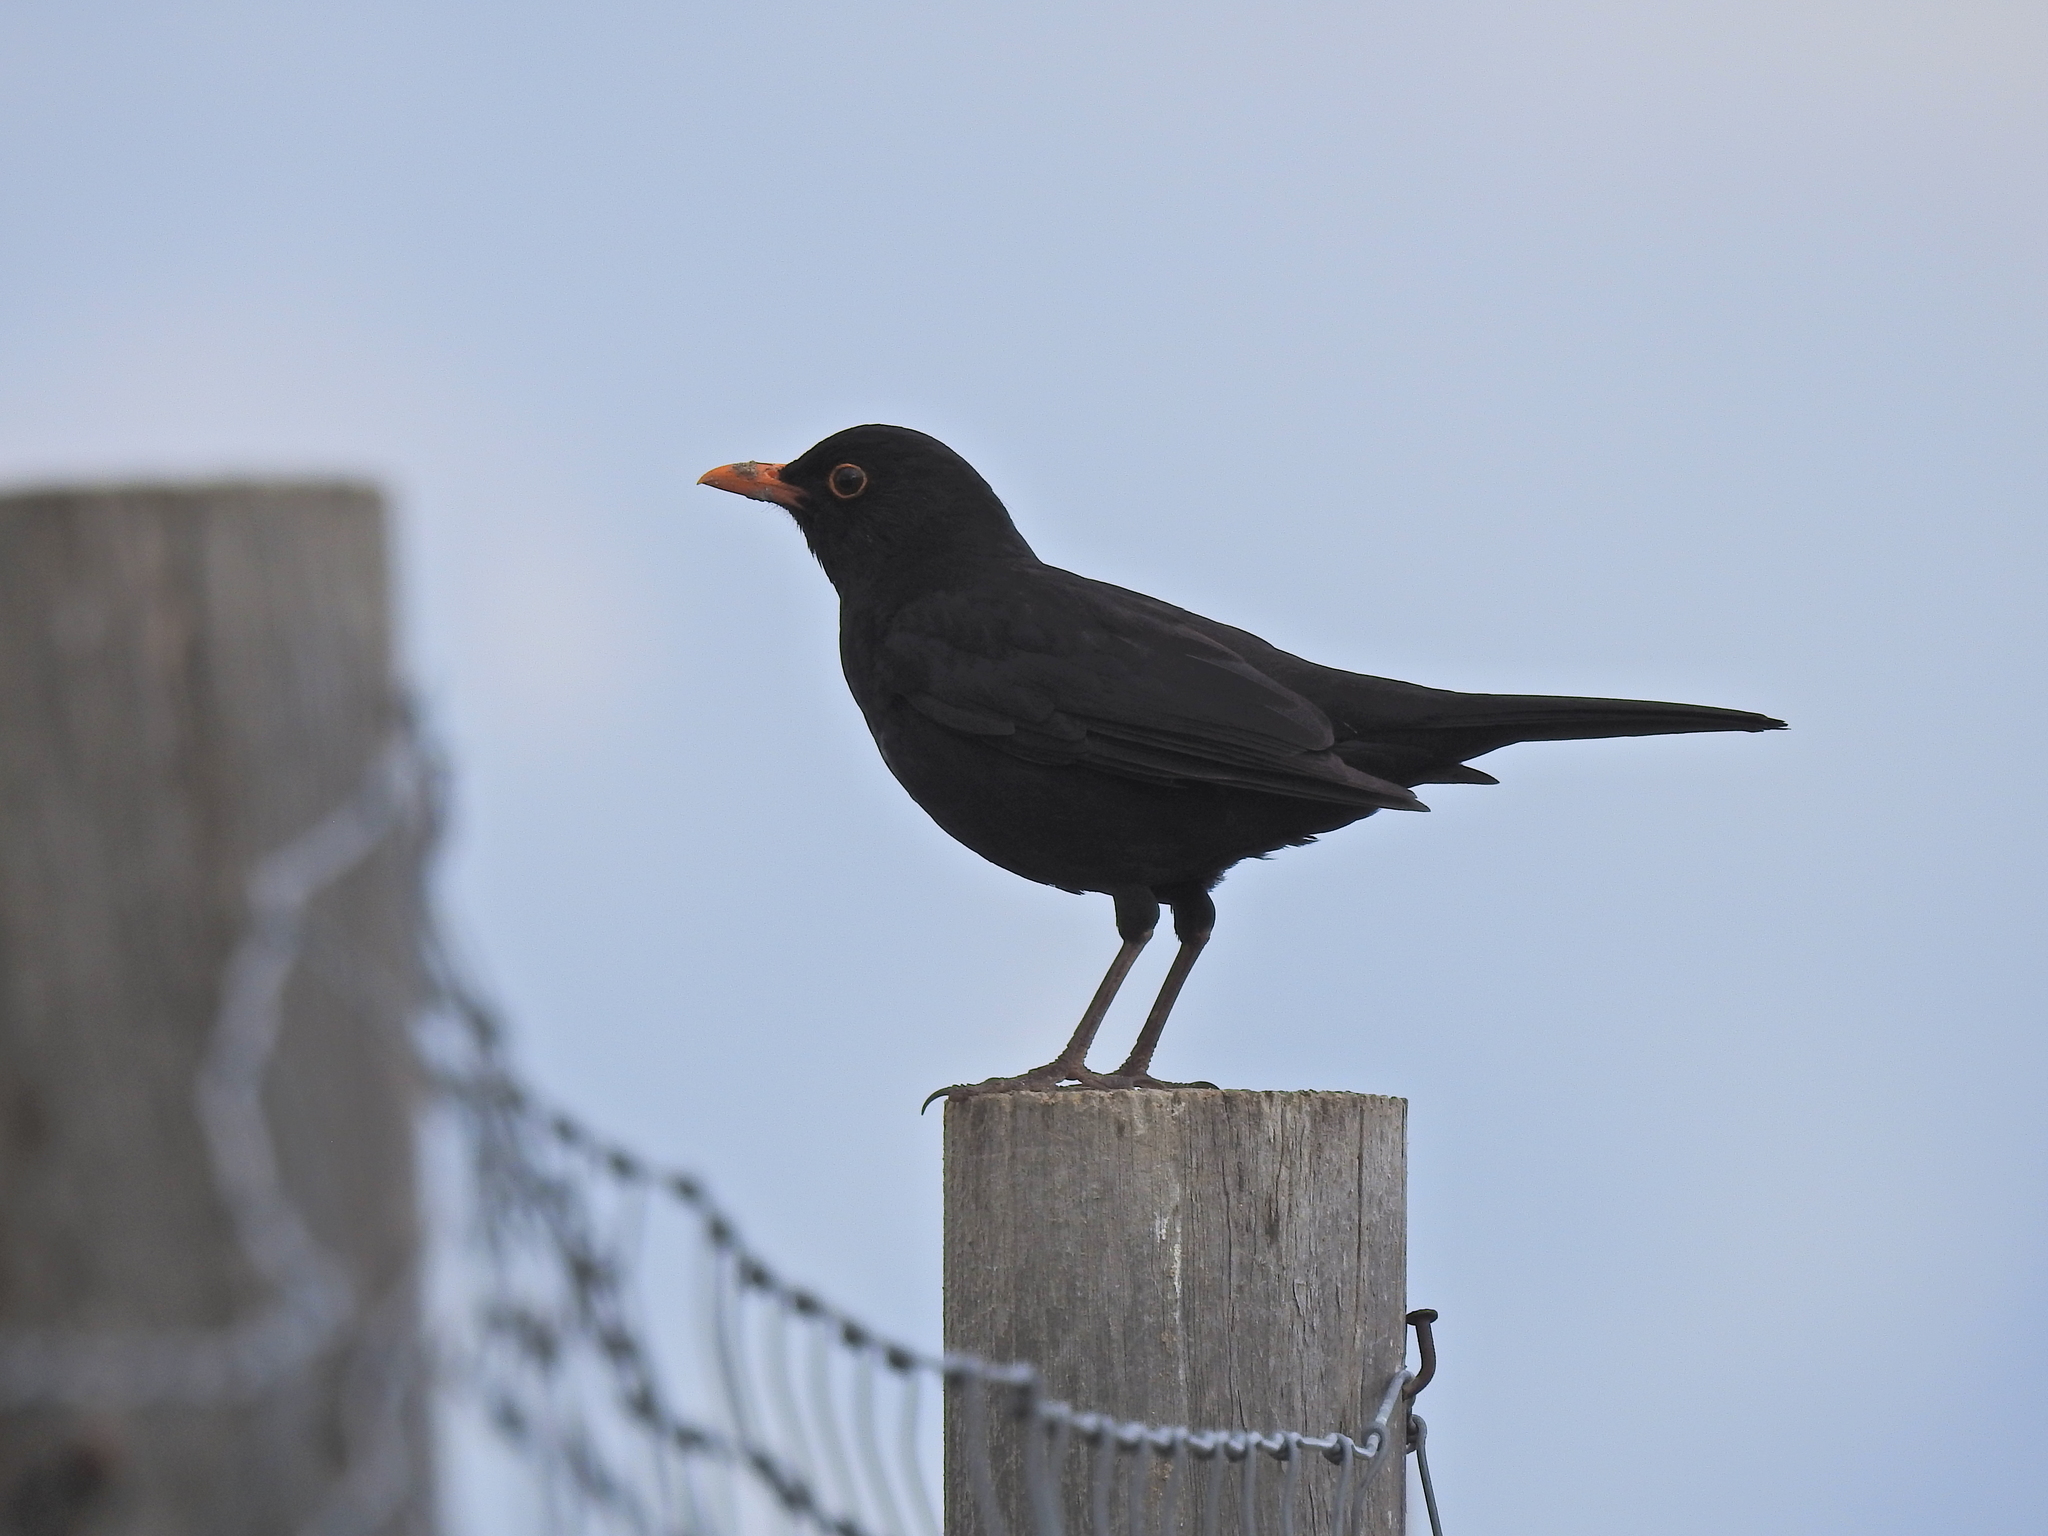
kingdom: Animalia
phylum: Chordata
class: Aves
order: Passeriformes
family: Turdidae
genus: Turdus
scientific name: Turdus merula
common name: Common blackbird
